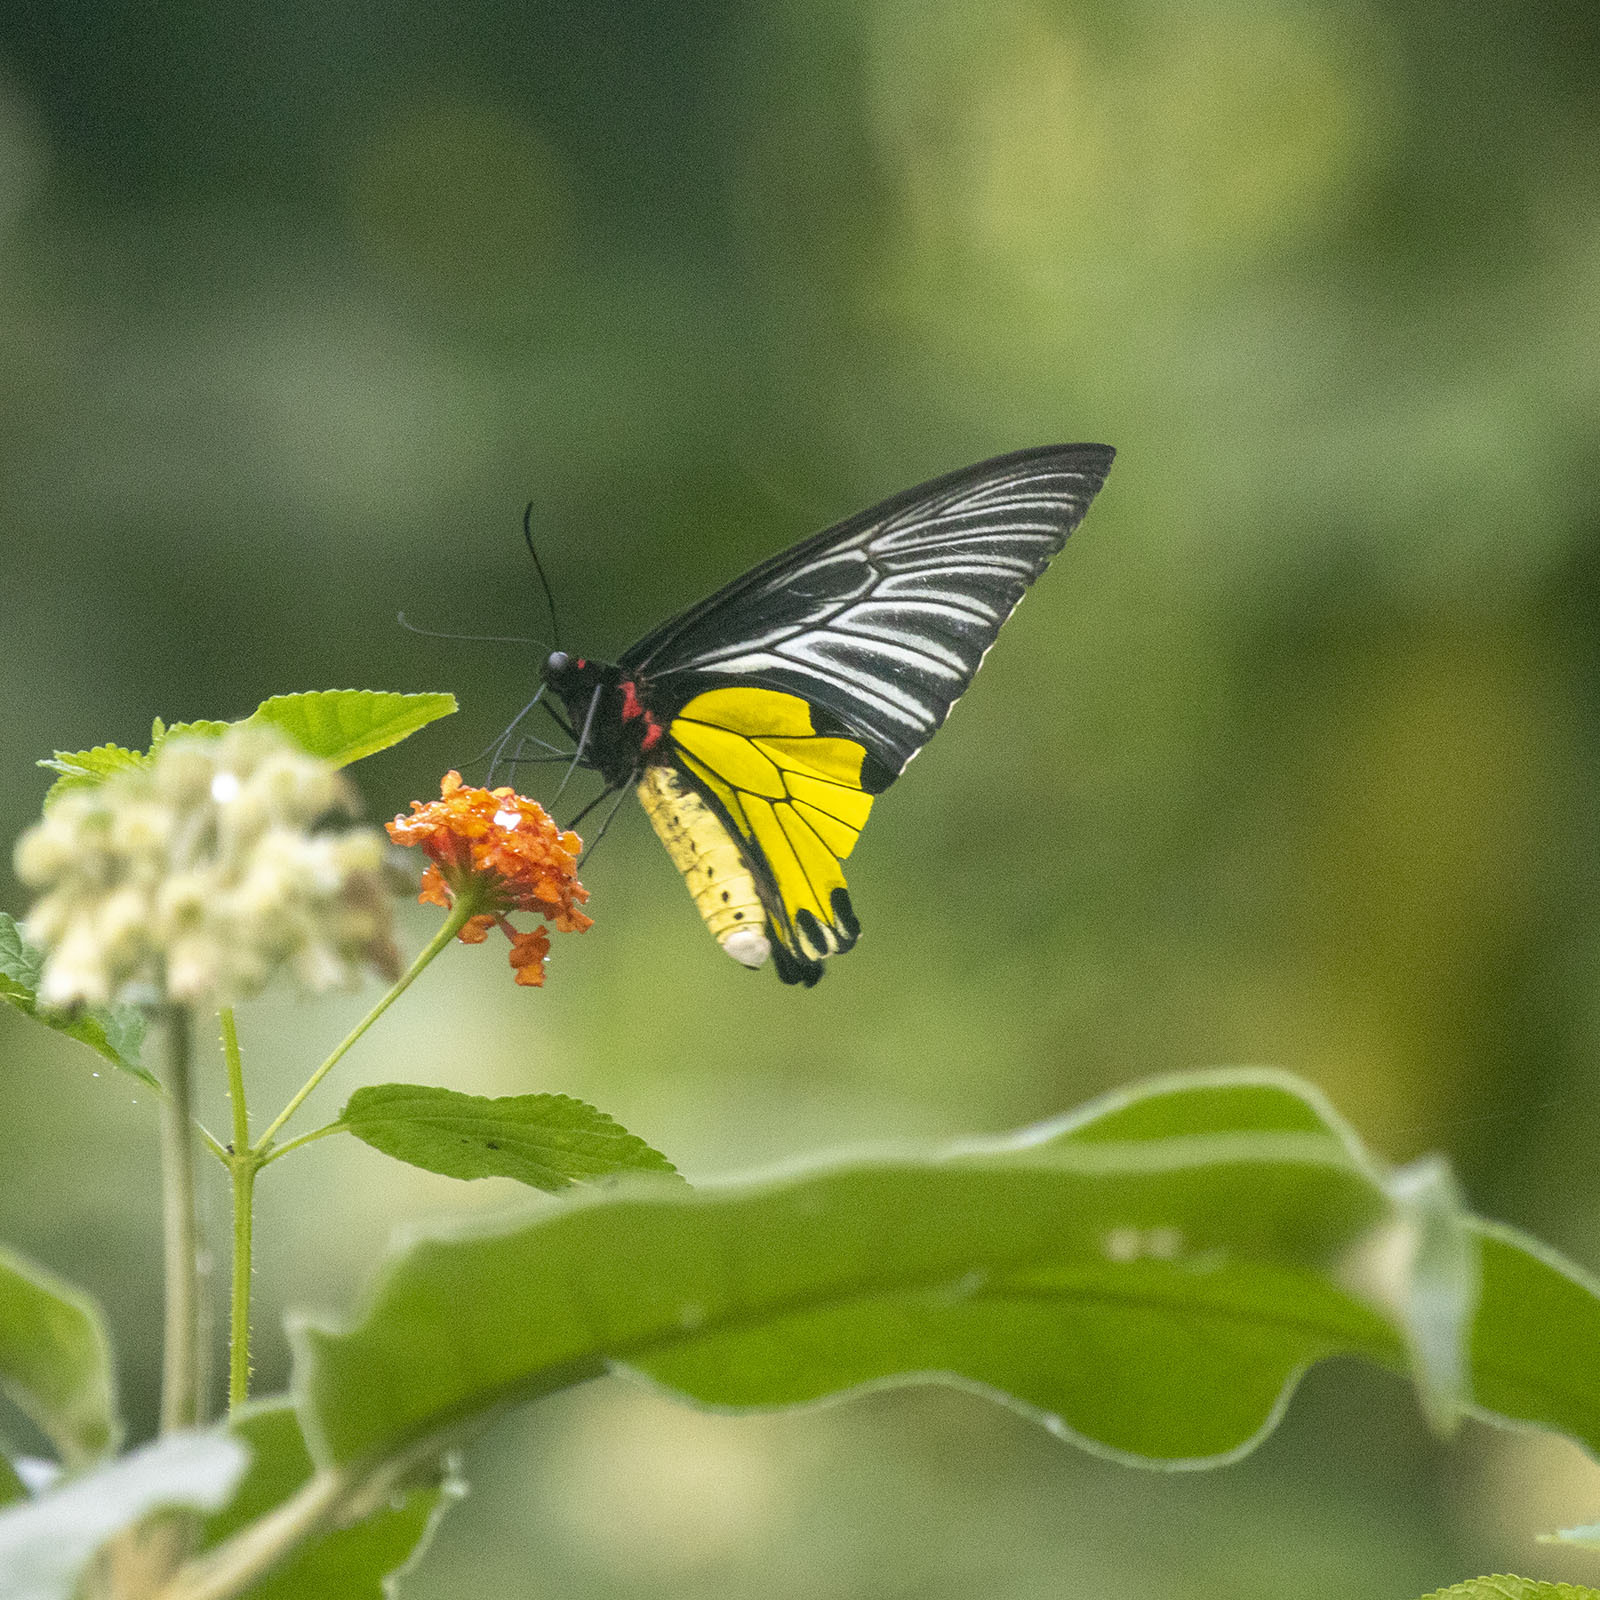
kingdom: Animalia
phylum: Arthropoda
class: Insecta
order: Lepidoptera
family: Papilionidae
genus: Troides
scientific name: Troides minos
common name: Malabar birdwing
